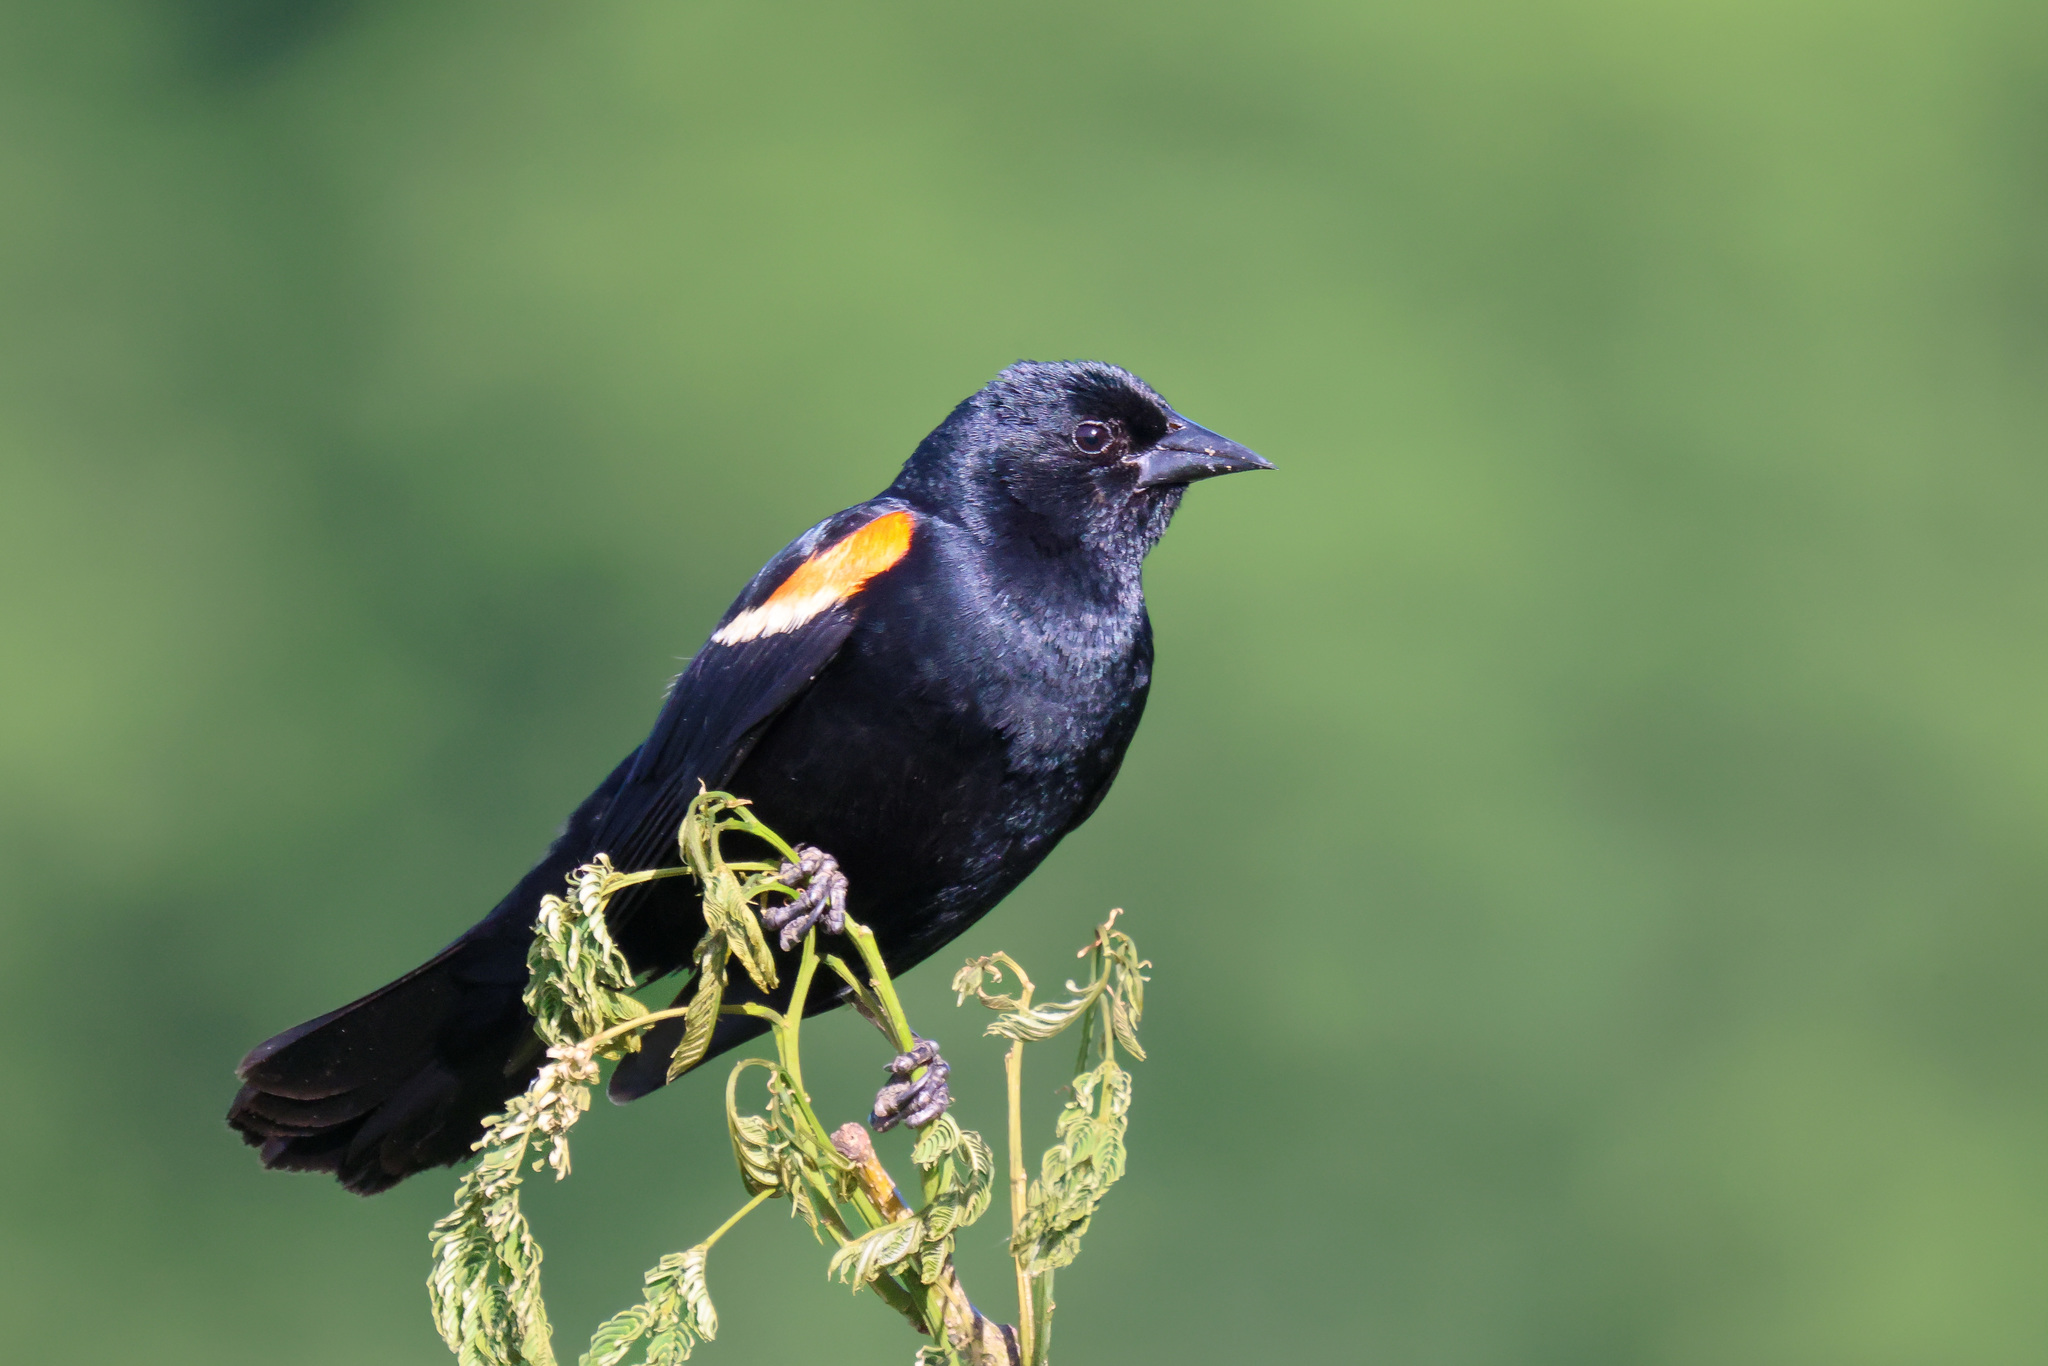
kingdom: Animalia
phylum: Chordata
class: Aves
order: Passeriformes
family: Icteridae
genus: Agelaius
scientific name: Agelaius phoeniceus
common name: Red-winged blackbird
